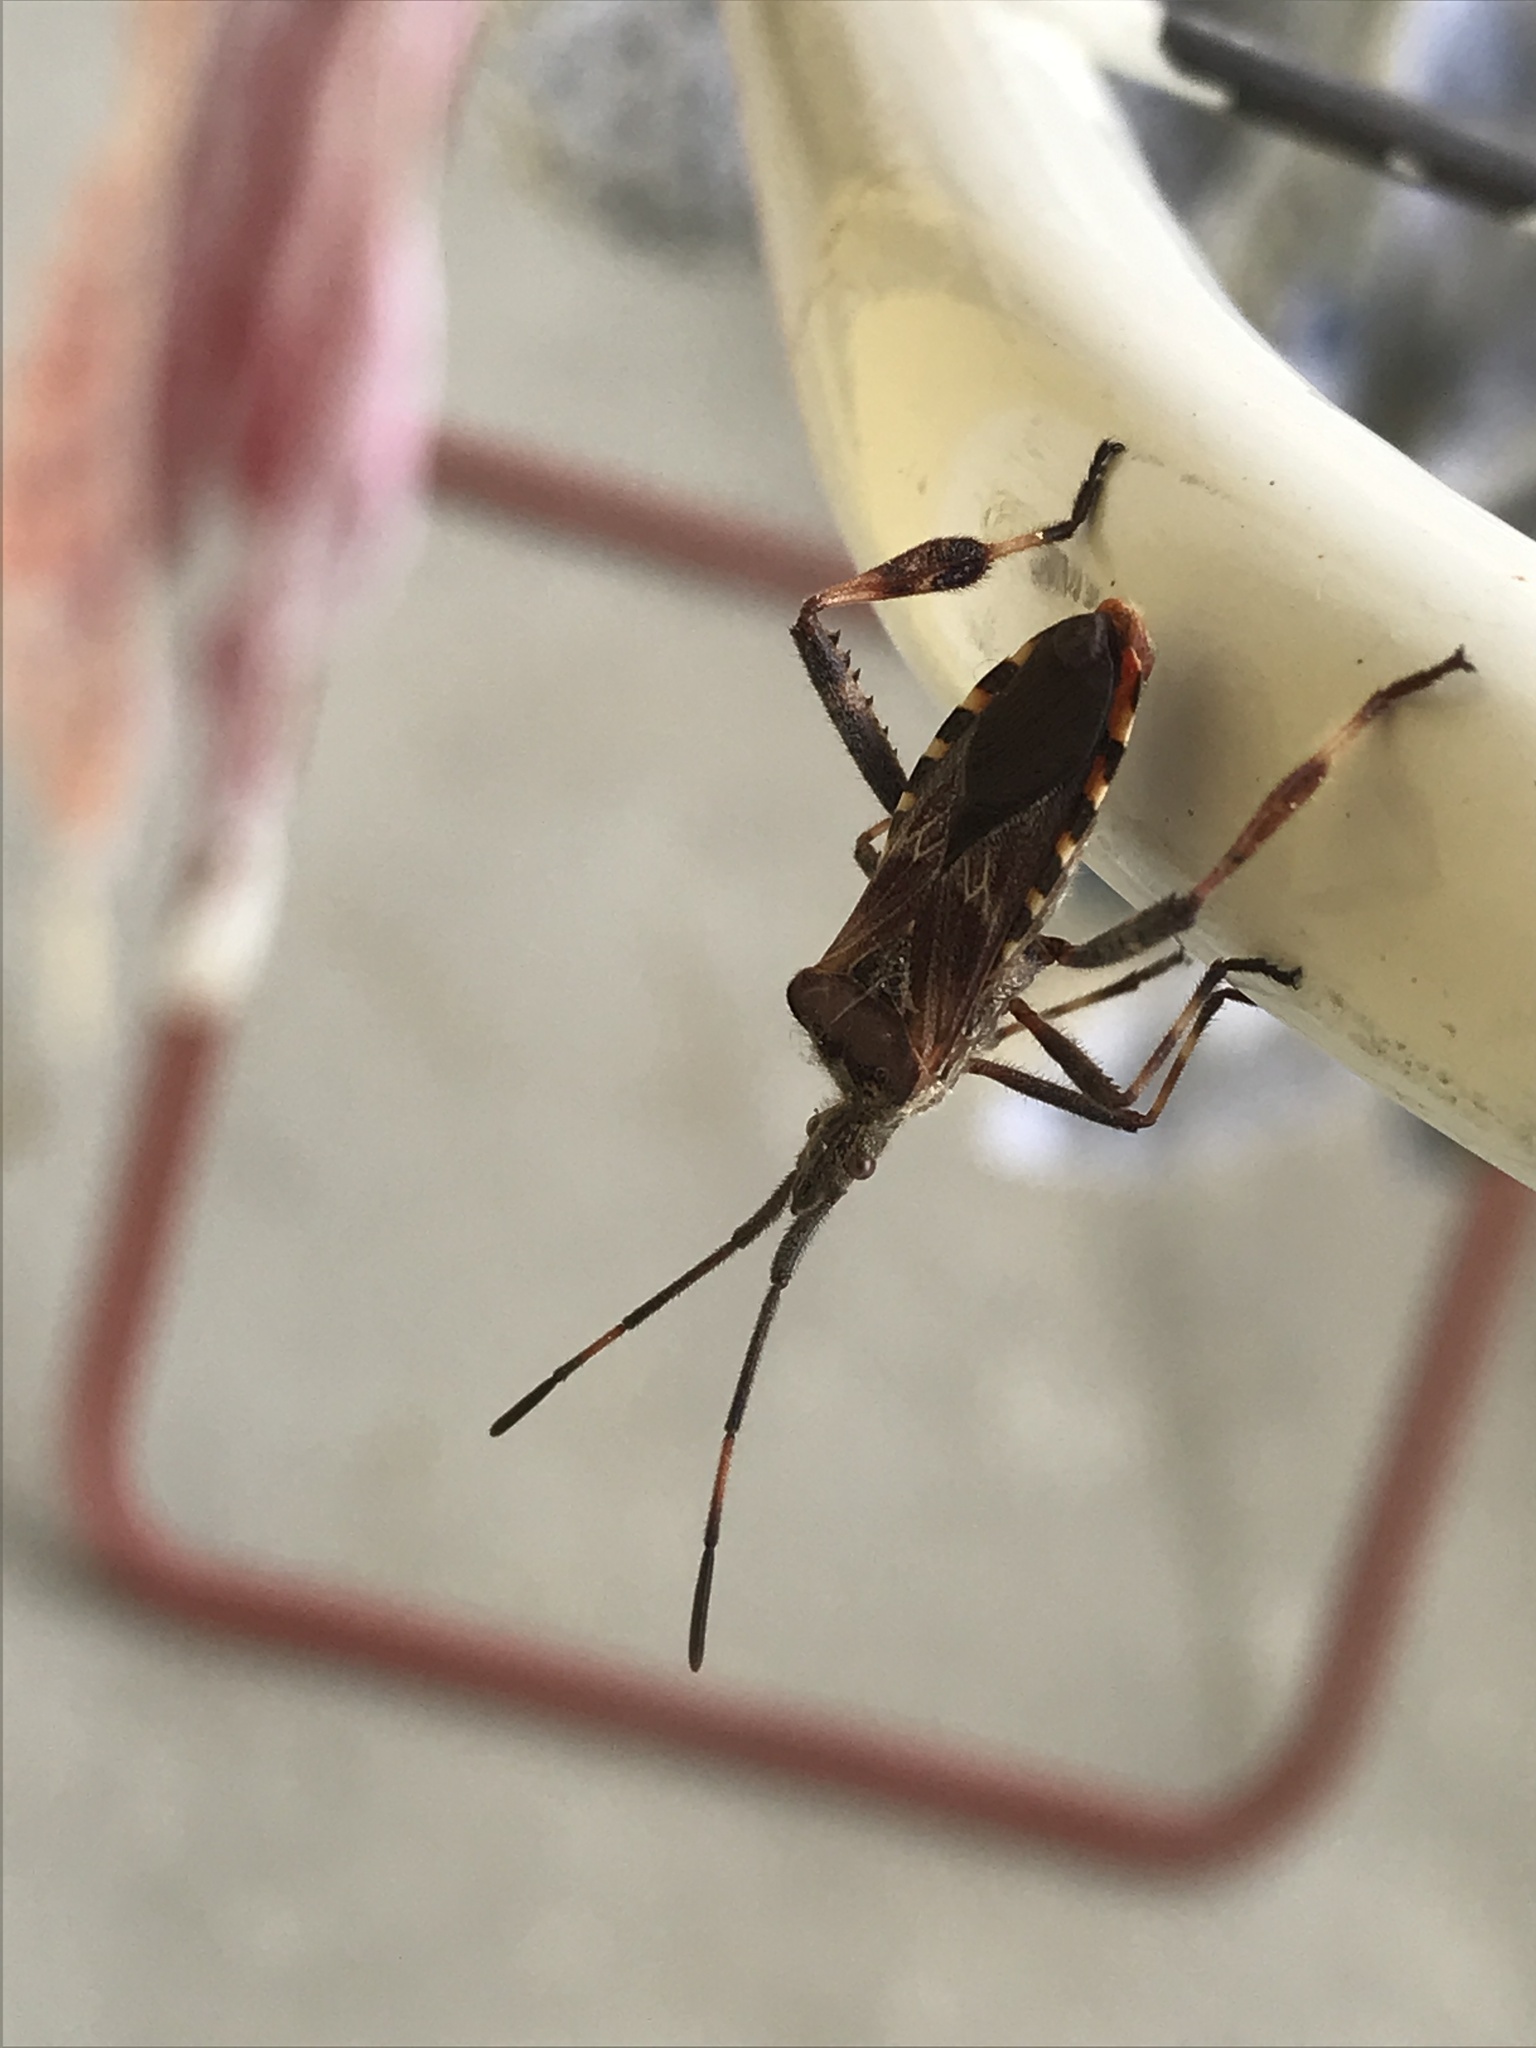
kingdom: Animalia
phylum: Arthropoda
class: Insecta
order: Hemiptera
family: Coreidae
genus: Leptoglossus
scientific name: Leptoglossus occidentalis
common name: Western conifer-seed bug
